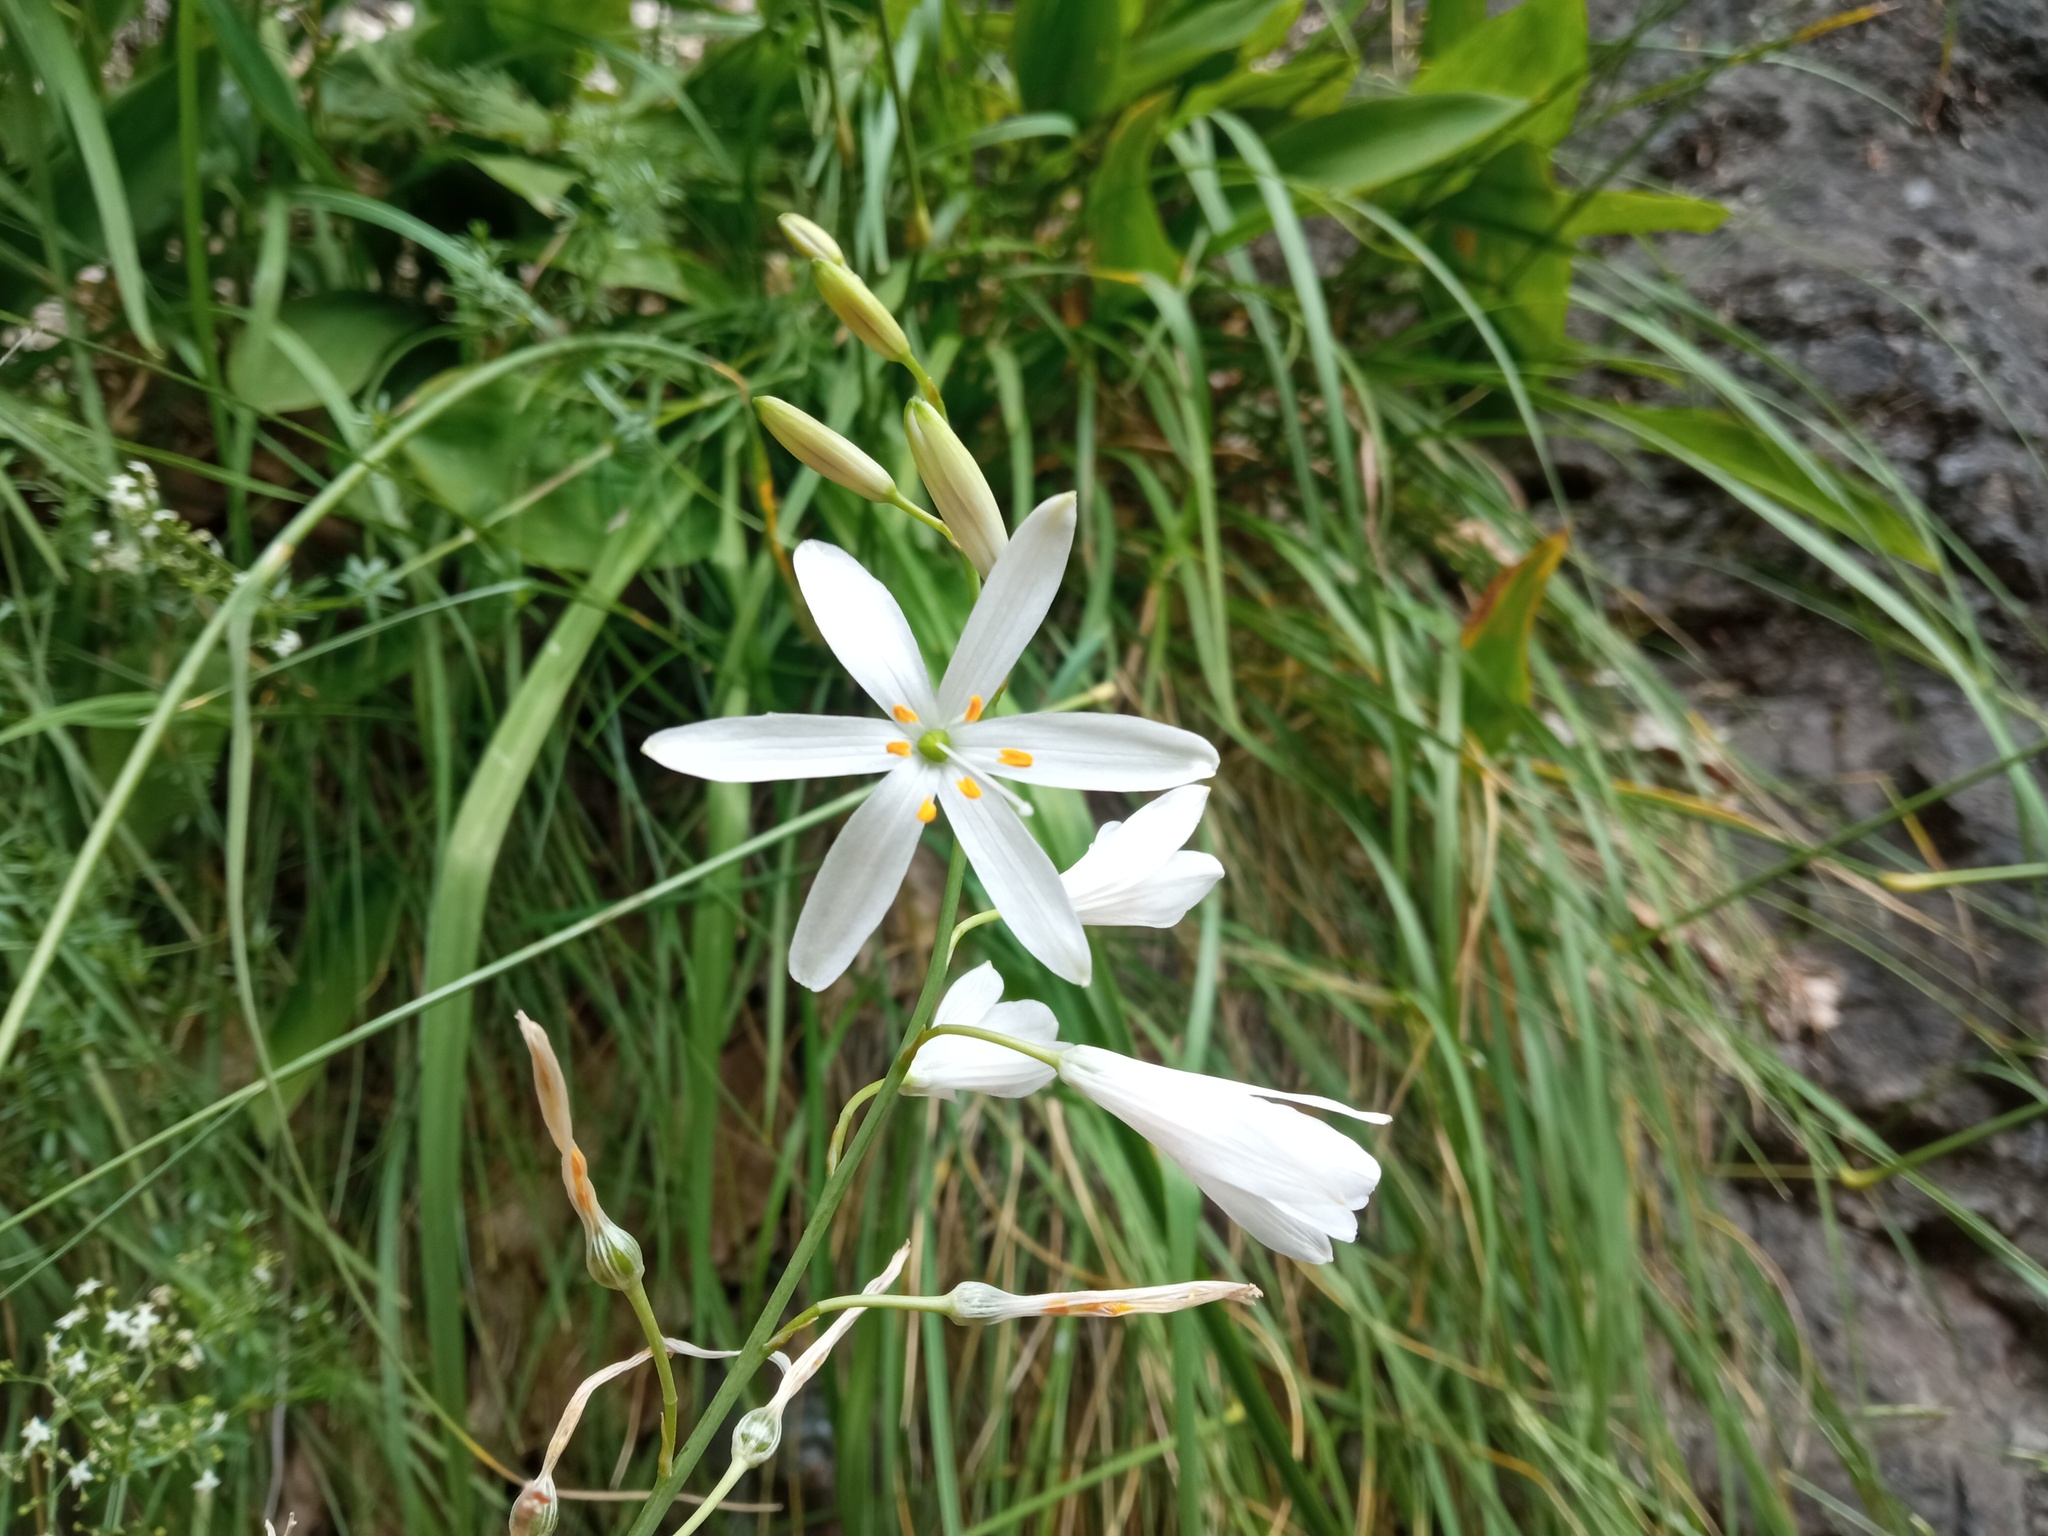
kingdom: Plantae
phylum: Tracheophyta
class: Liliopsida
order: Asparagales
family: Asparagaceae
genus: Anthericum
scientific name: Anthericum liliago
